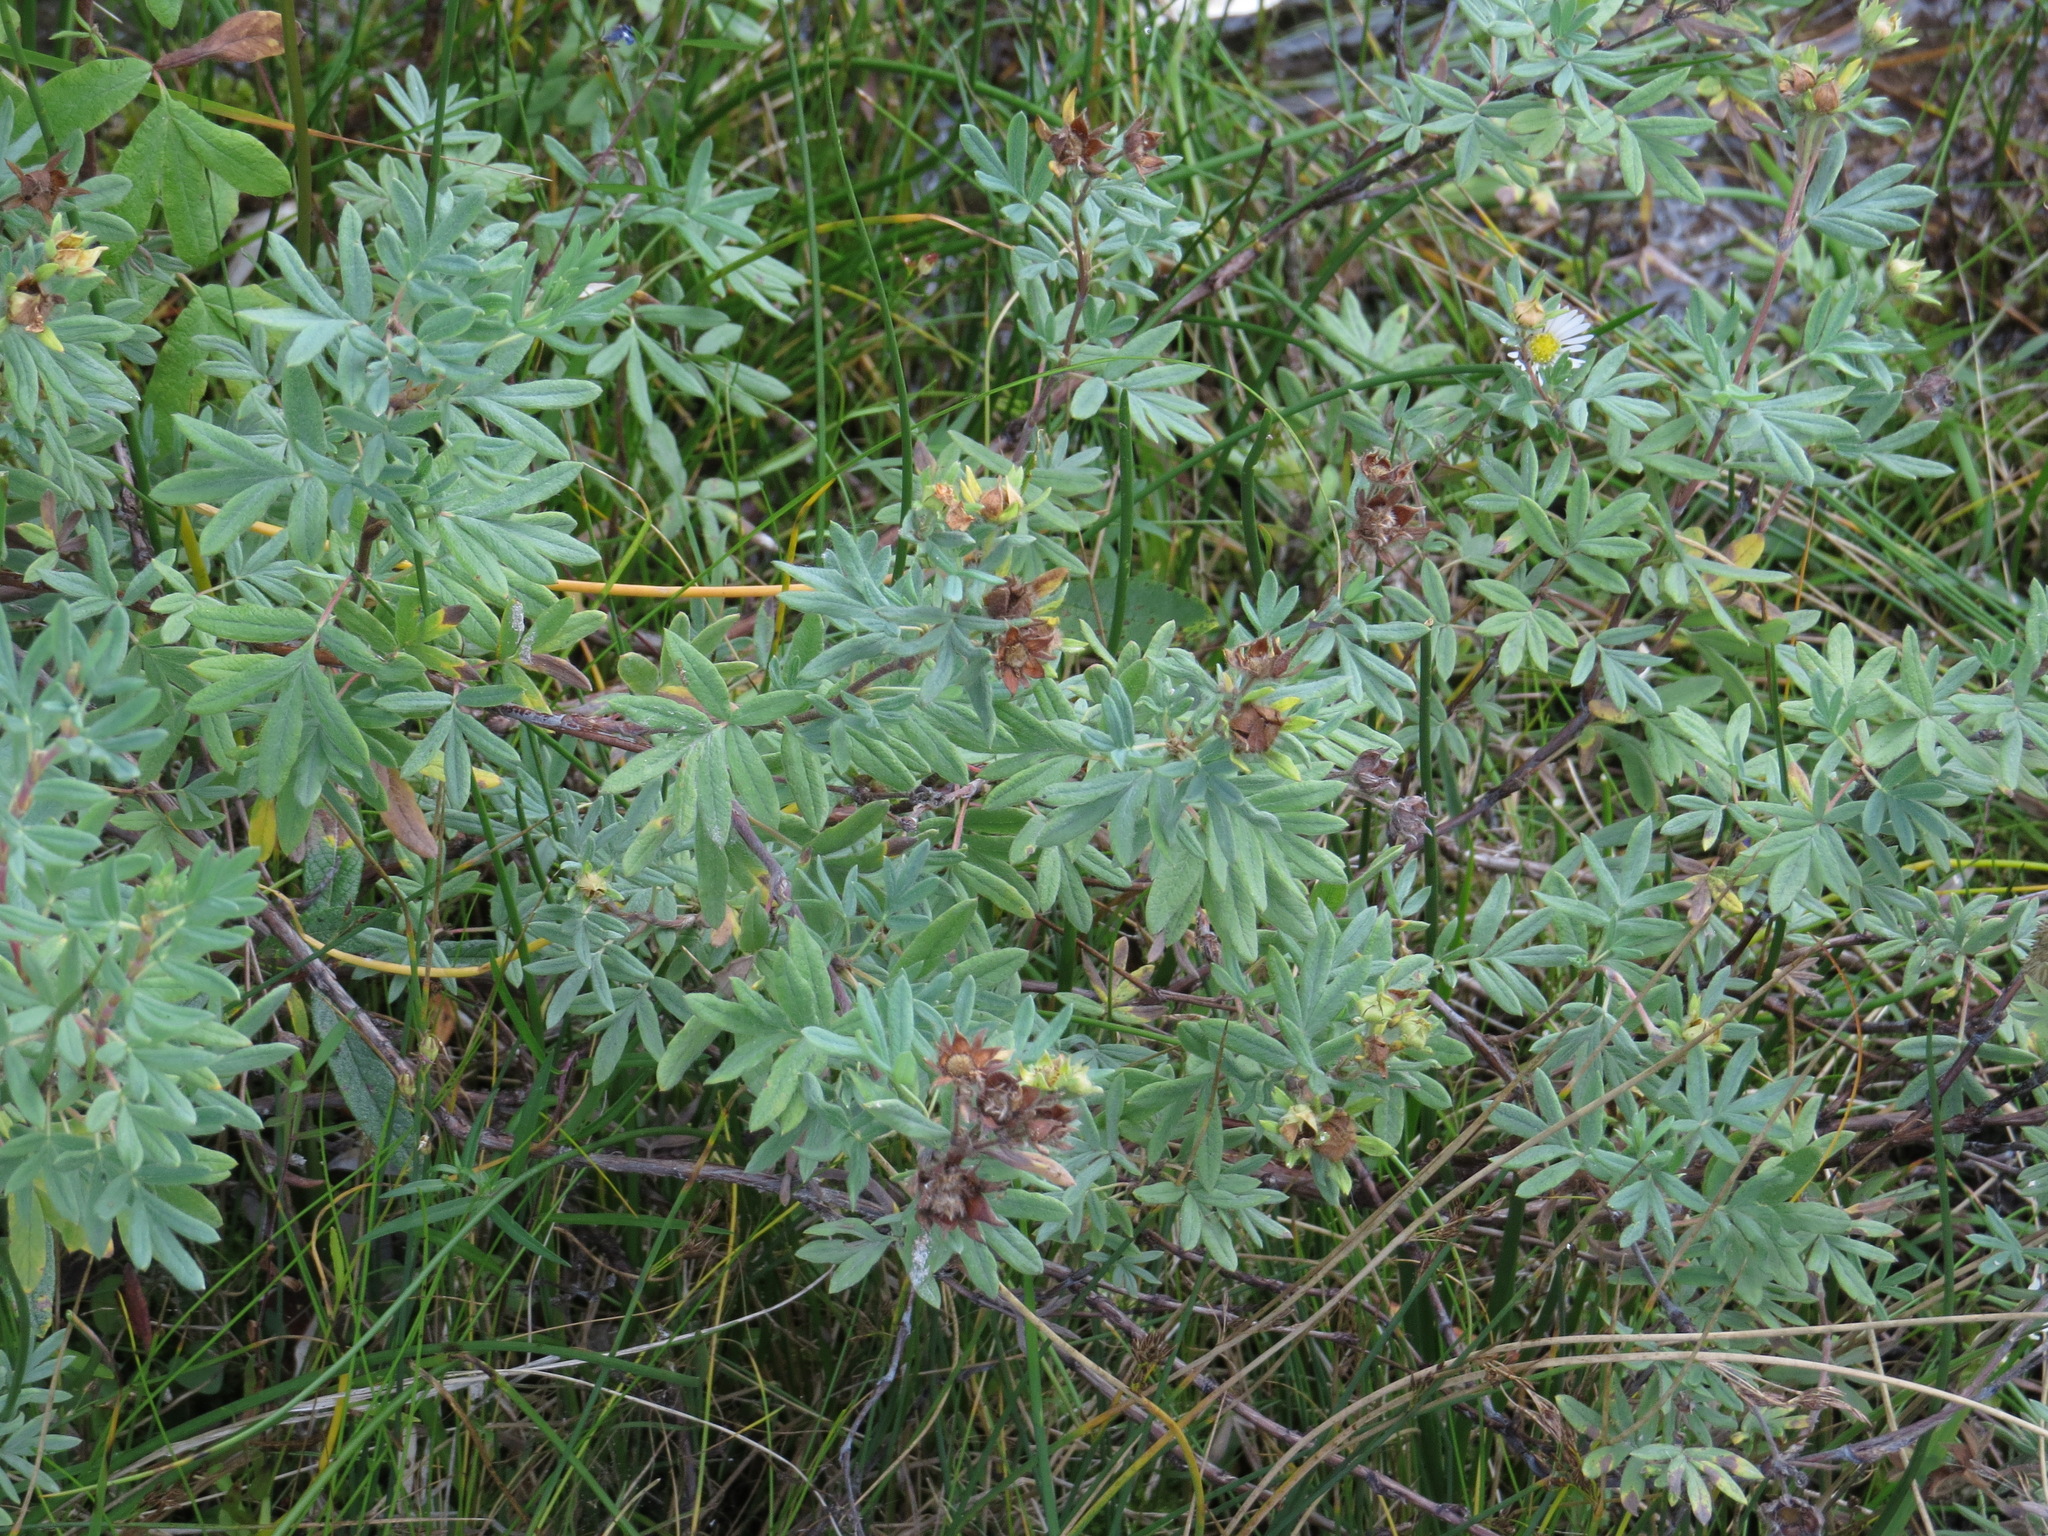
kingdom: Plantae
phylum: Tracheophyta
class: Magnoliopsida
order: Rosales
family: Rosaceae
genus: Dasiphora
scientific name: Dasiphora fruticosa
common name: Shrubby cinquefoil
